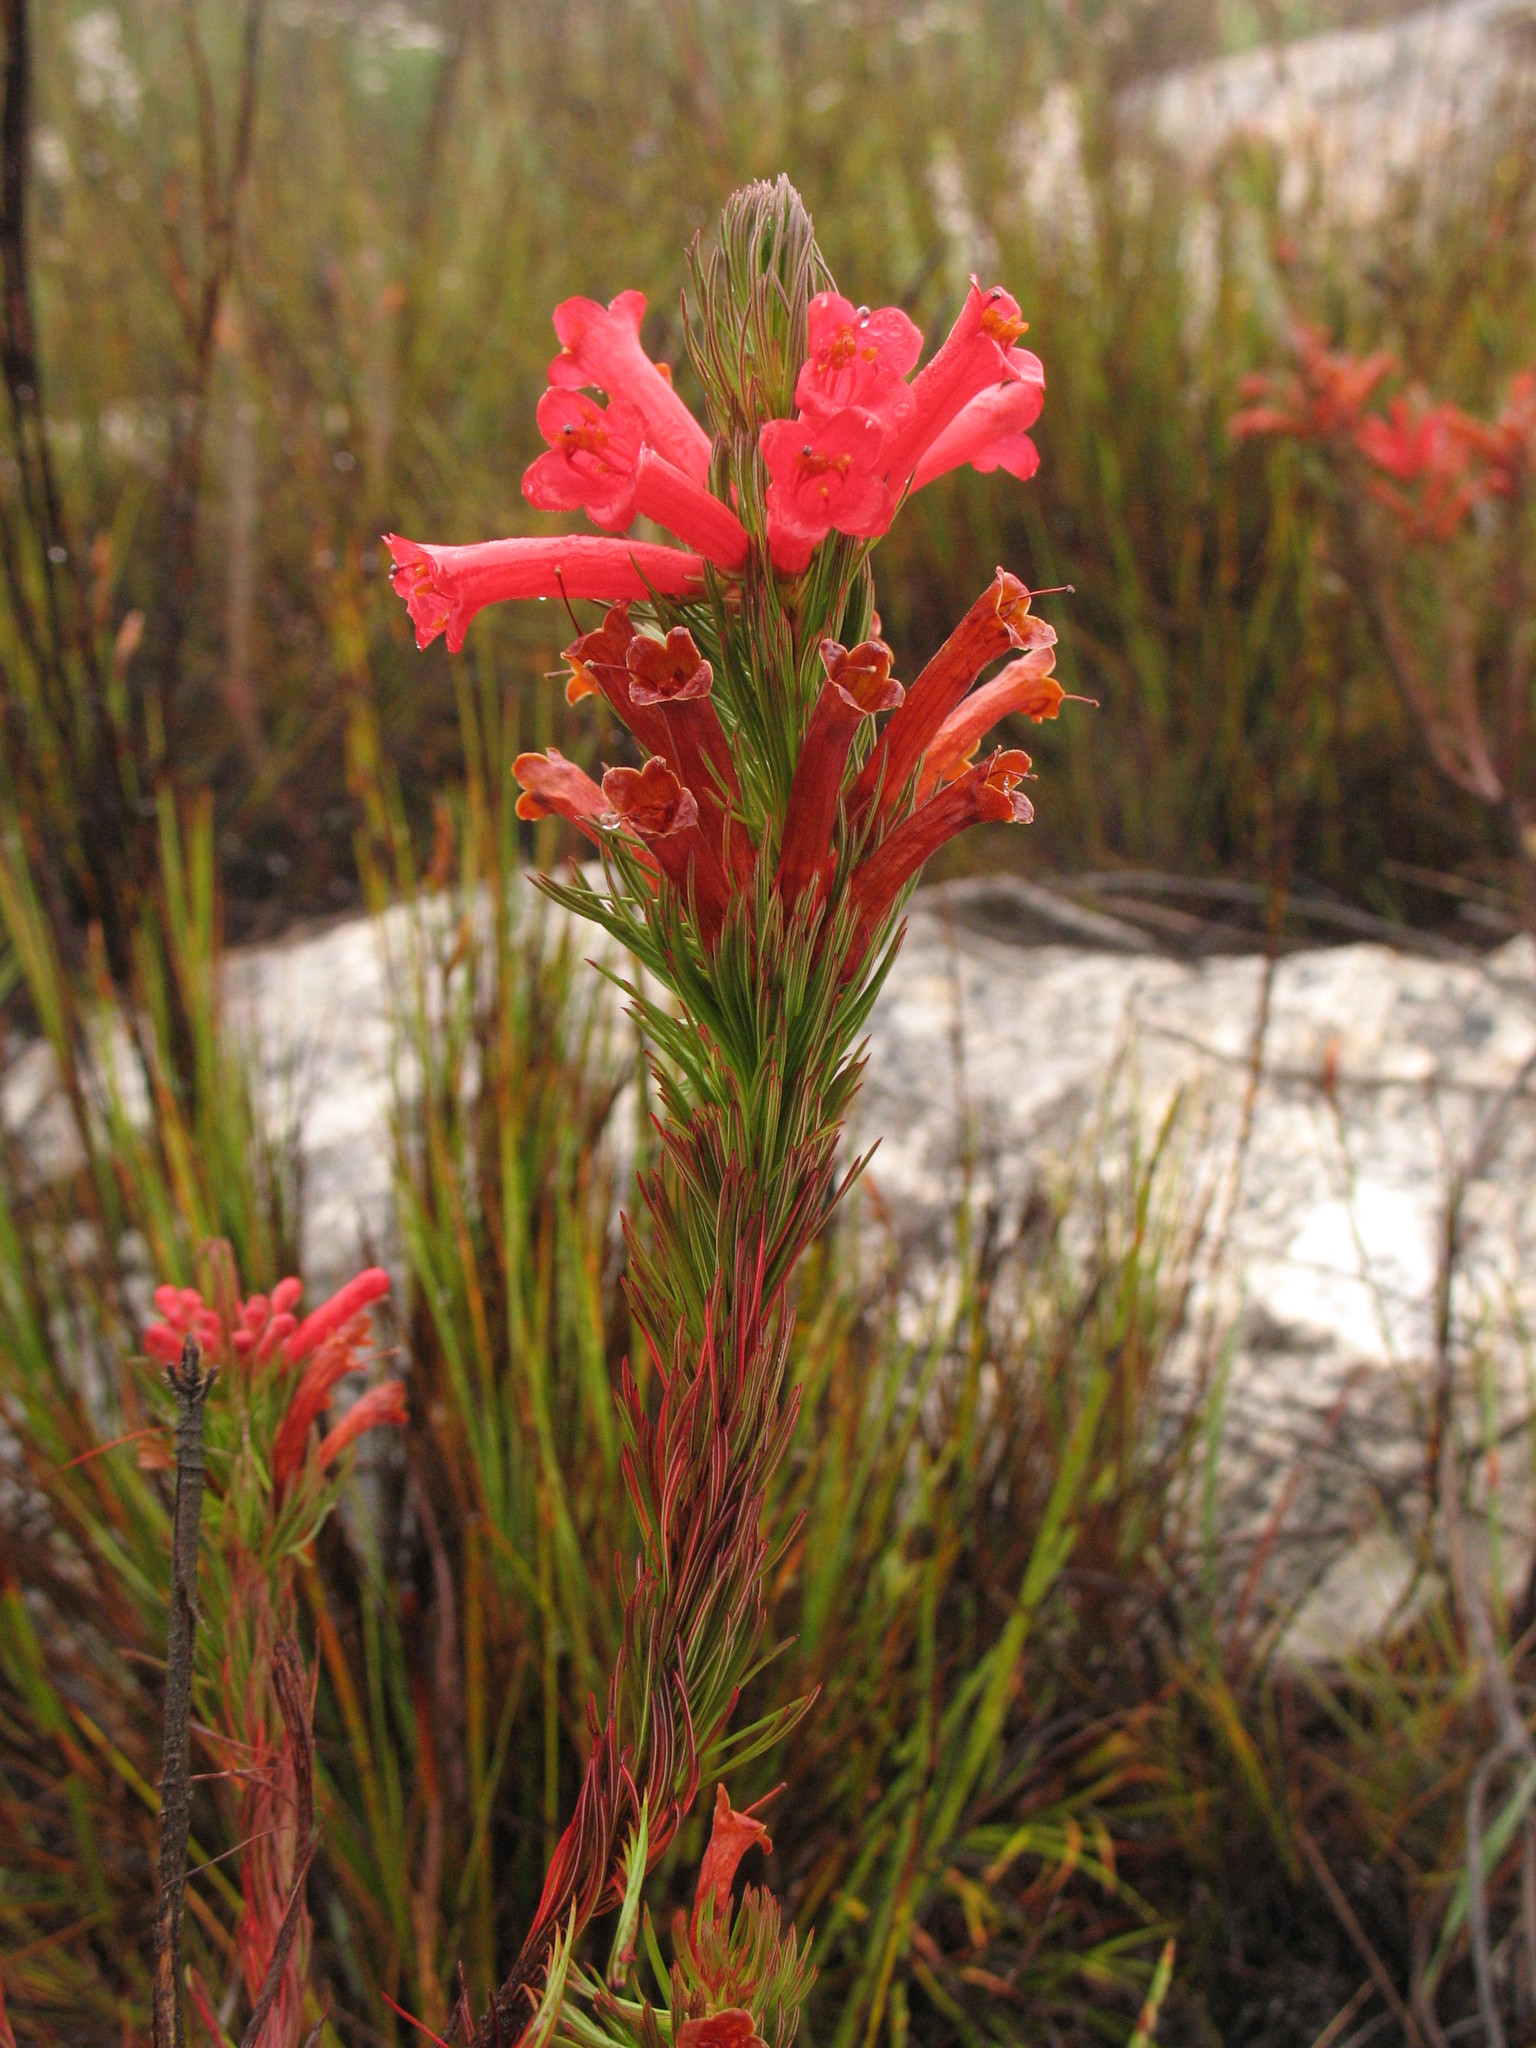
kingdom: Plantae
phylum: Tracheophyta
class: Magnoliopsida
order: Ericales
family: Ericaceae
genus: Erica
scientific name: Erica vestita
